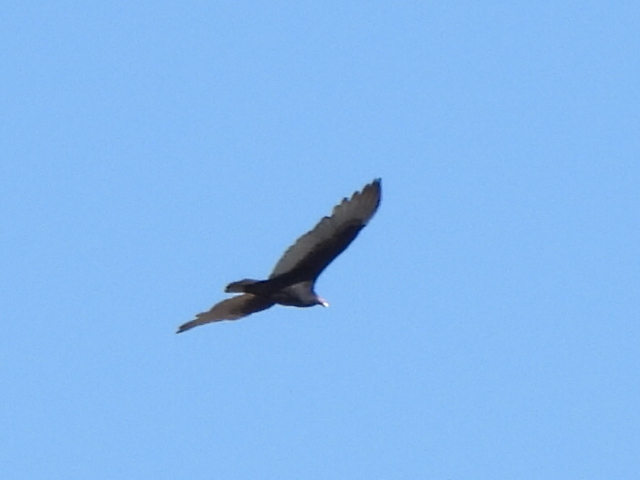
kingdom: Animalia
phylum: Chordata
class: Aves
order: Accipitriformes
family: Cathartidae
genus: Cathartes
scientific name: Cathartes aura
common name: Turkey vulture
